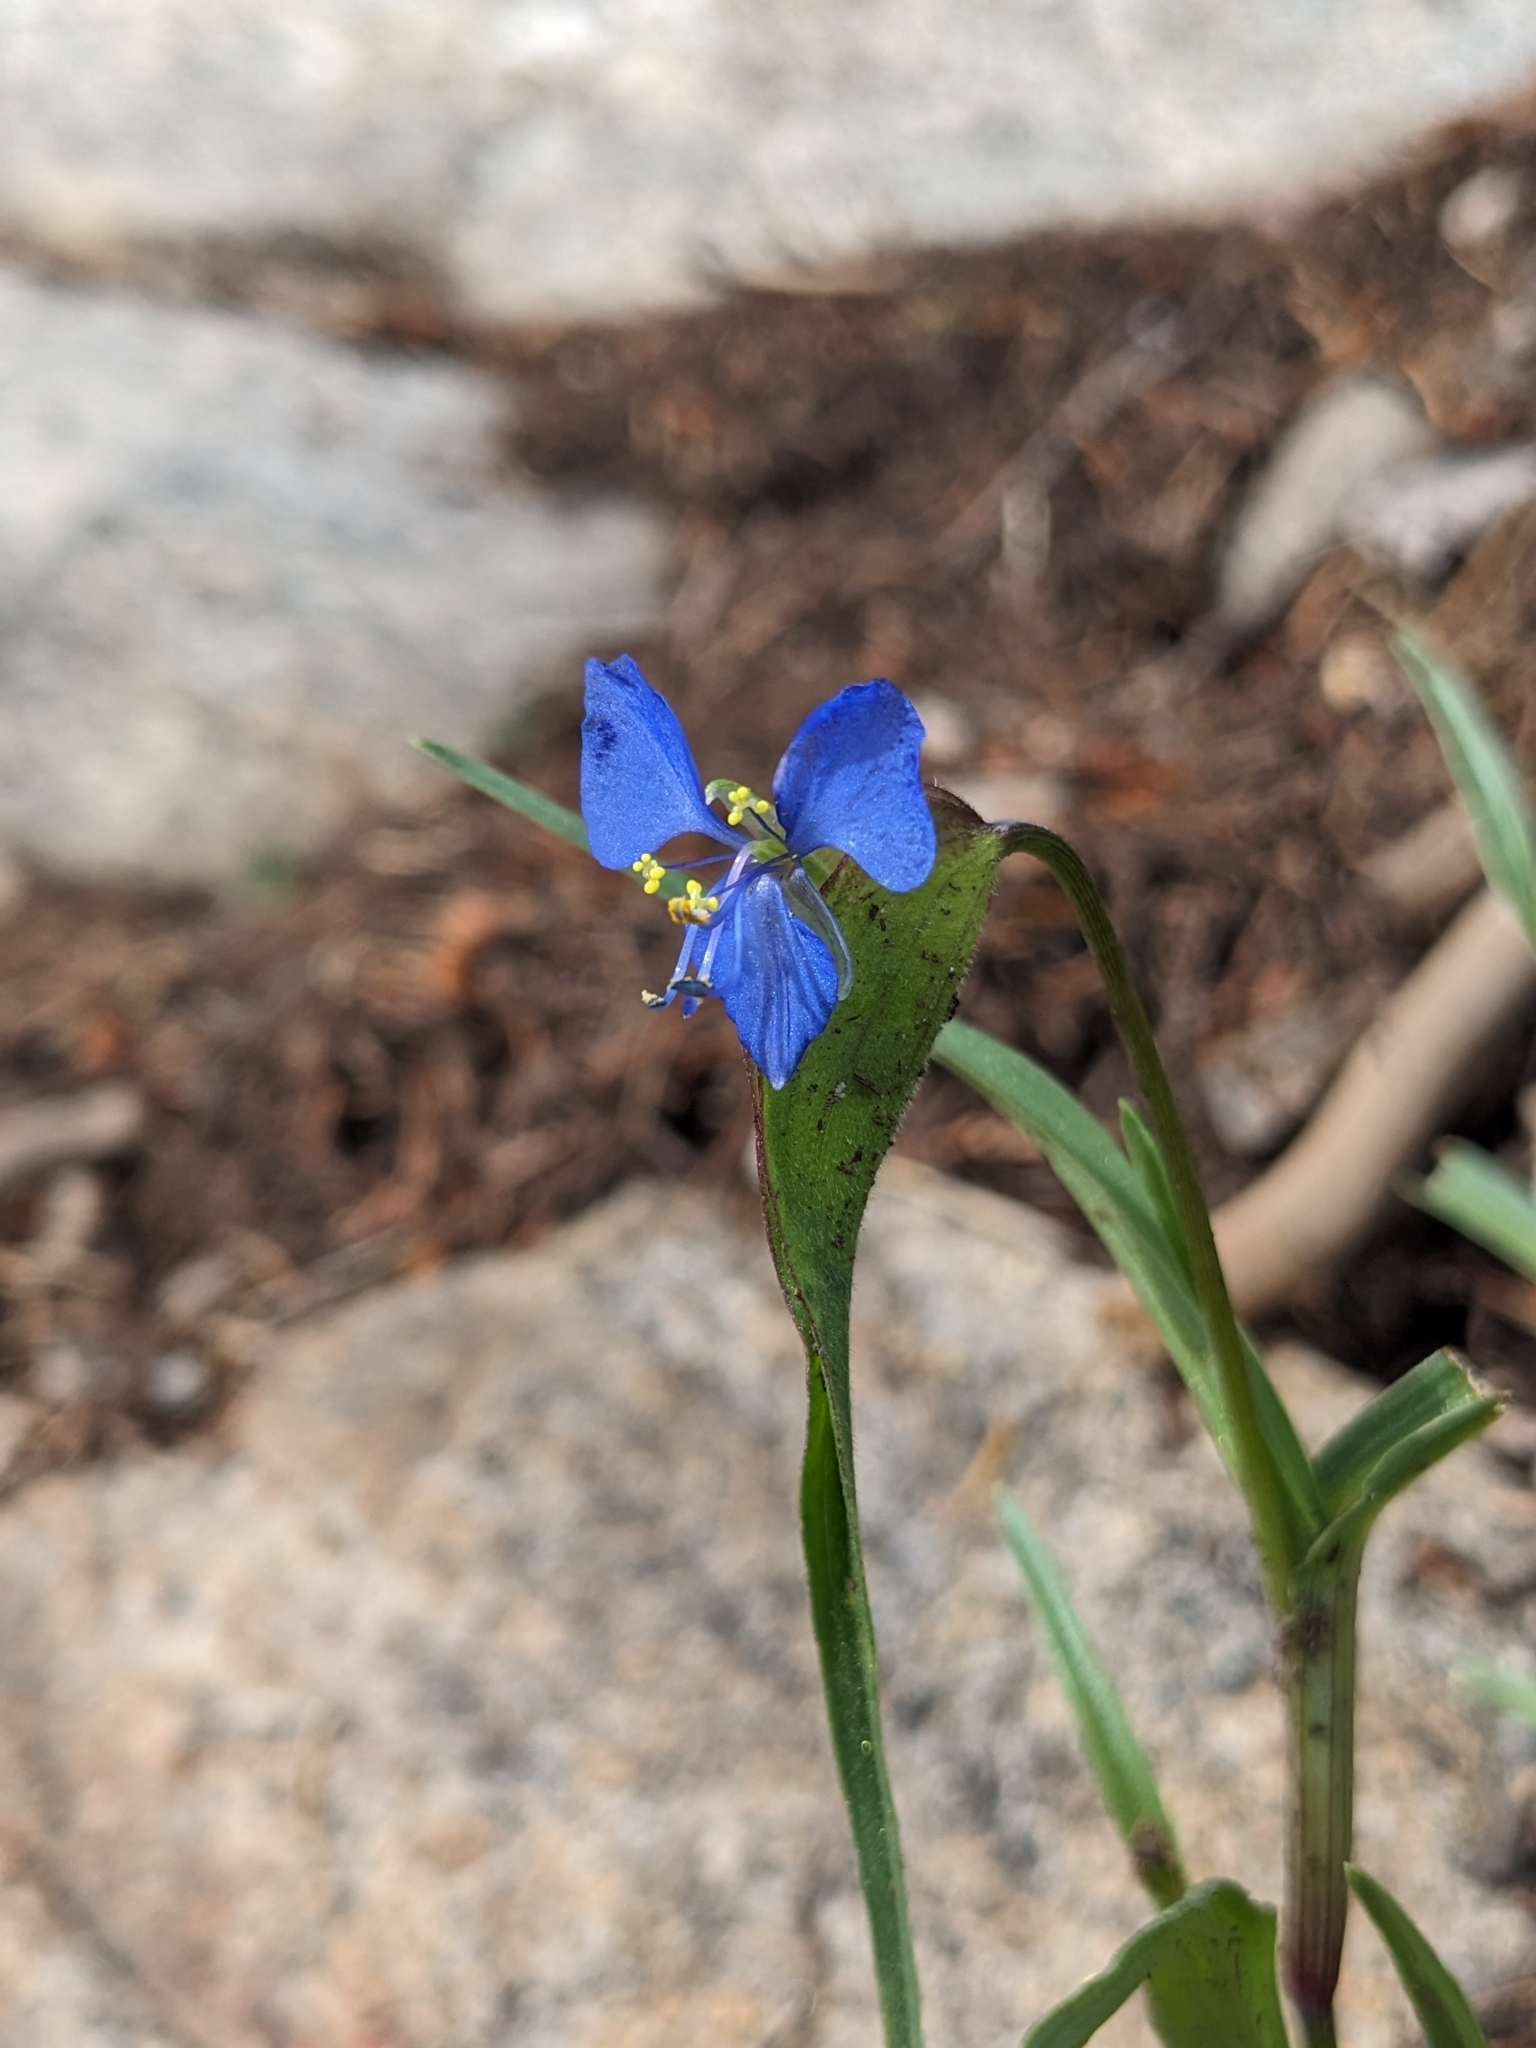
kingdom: Plantae
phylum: Tracheophyta
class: Liliopsida
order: Commelinales
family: Commelinaceae
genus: Commelina
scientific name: Commelina dianthifolia
